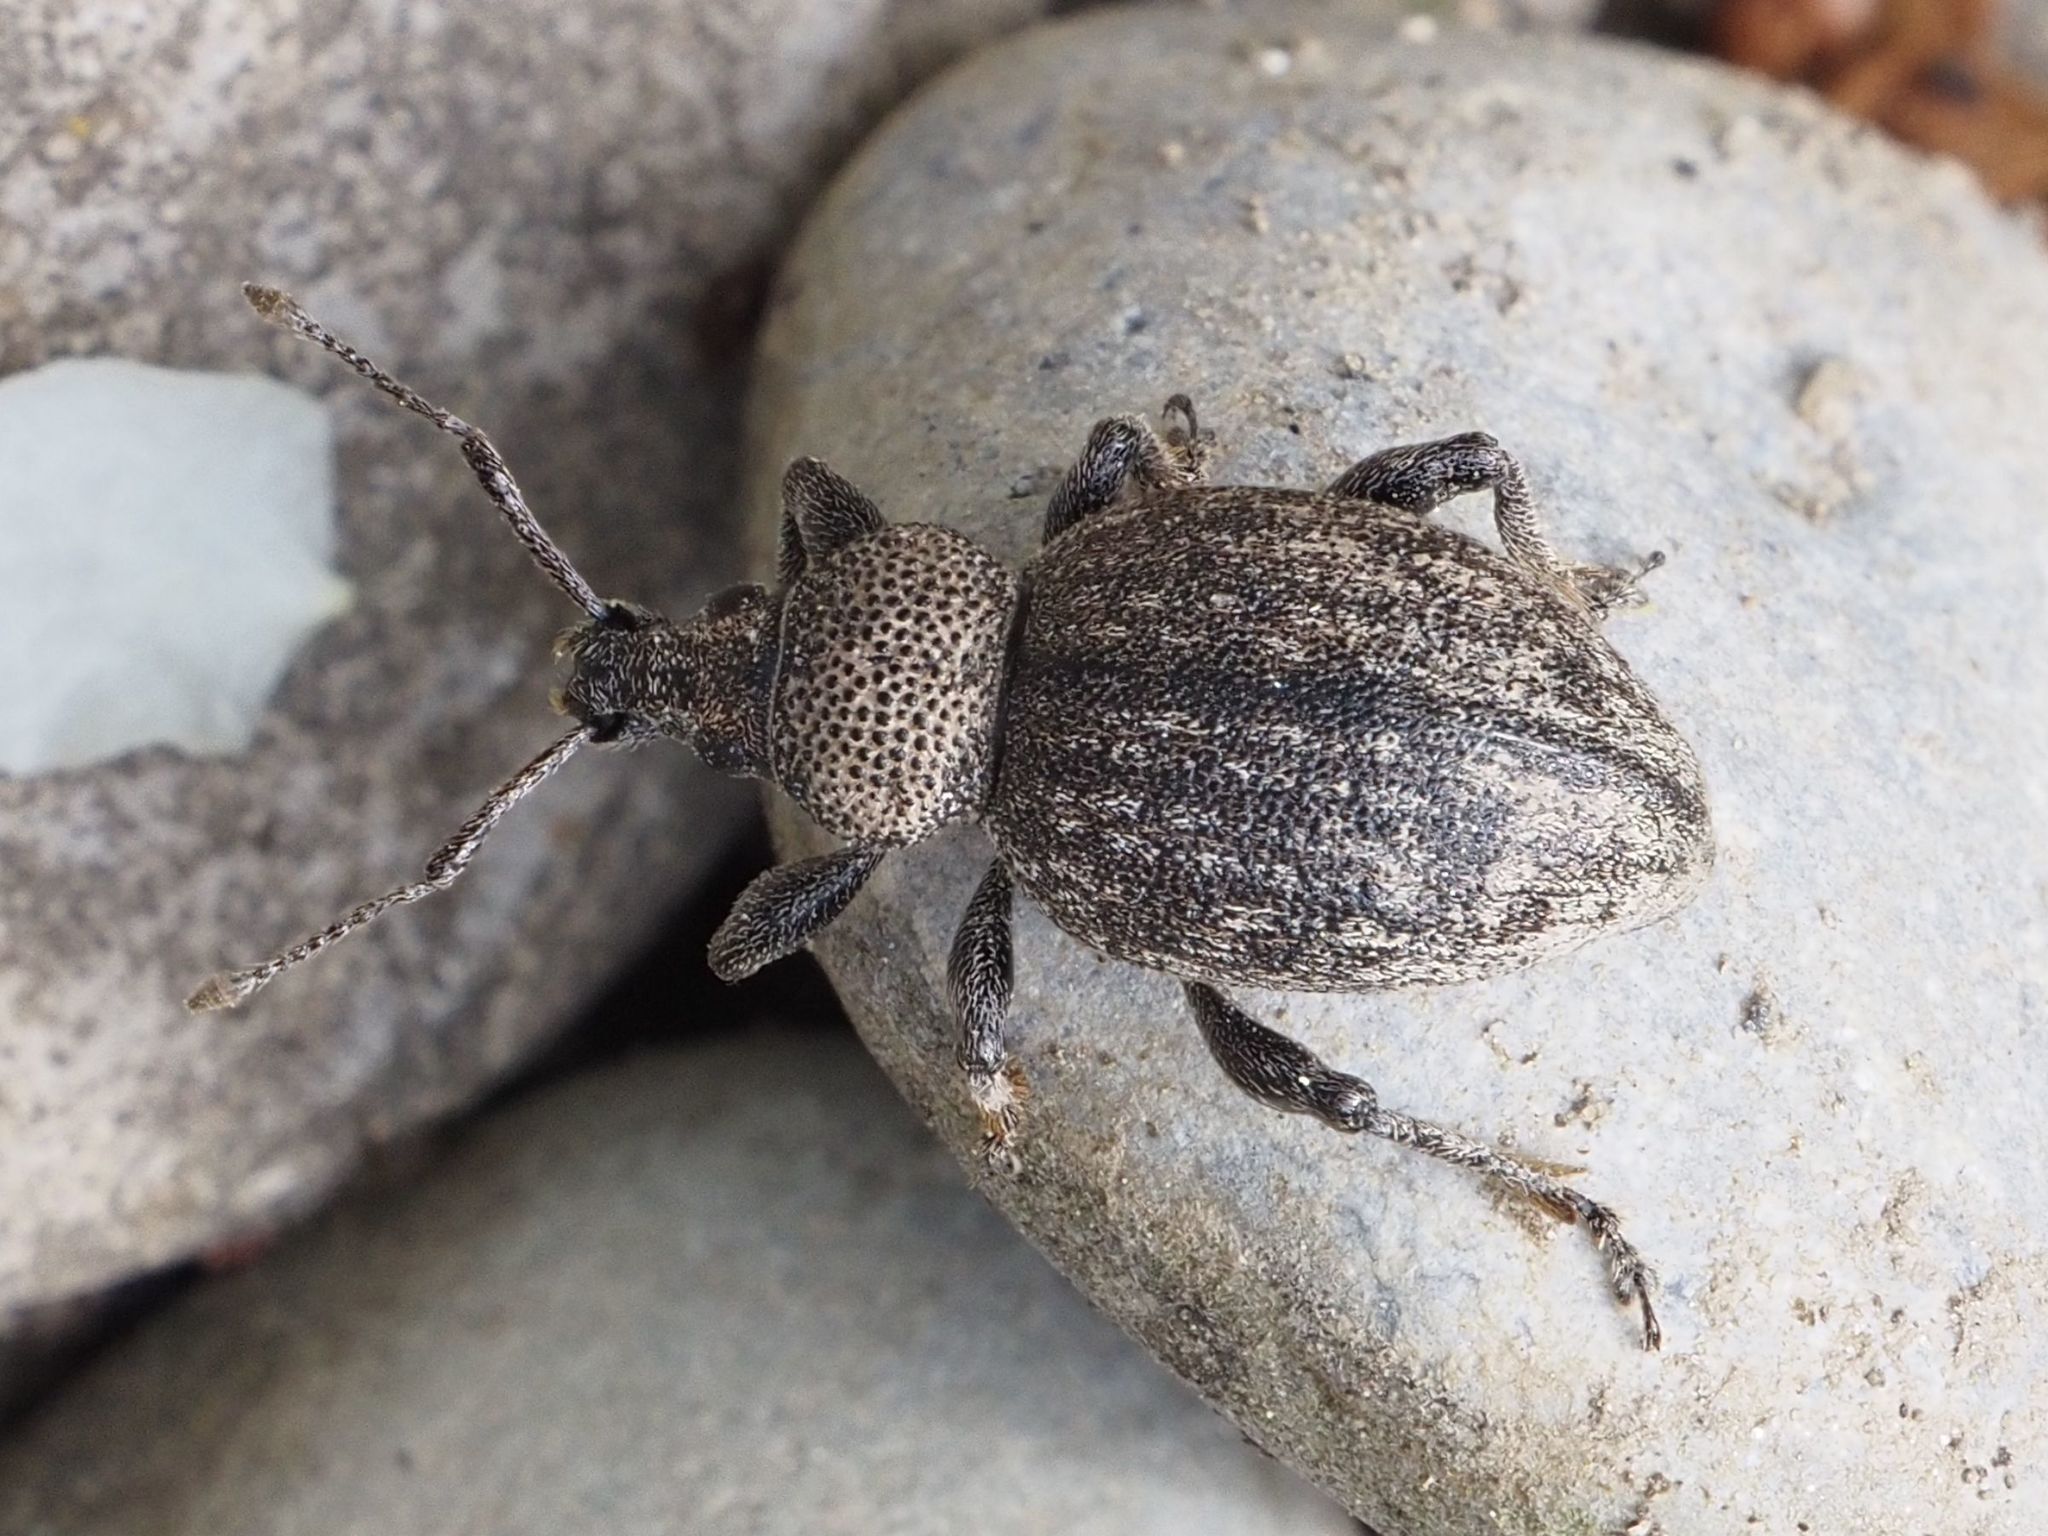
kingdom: Animalia
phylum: Arthropoda
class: Insecta
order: Coleoptera
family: Curculionidae
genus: Otiorhynchus
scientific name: Otiorhynchus ligustici
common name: Weevil
